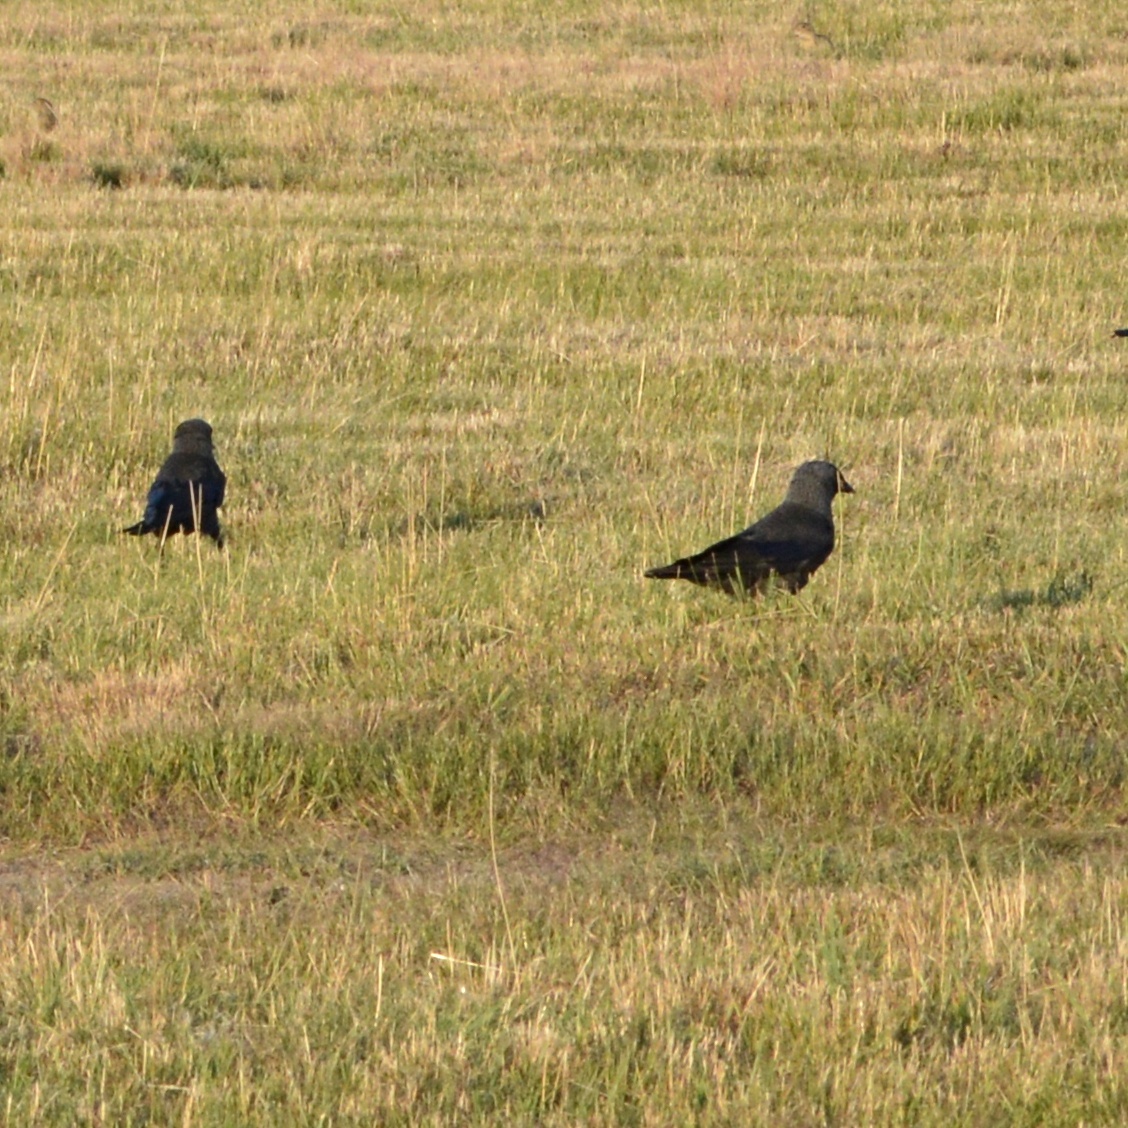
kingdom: Animalia
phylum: Chordata
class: Aves
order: Passeriformes
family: Corvidae
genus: Coloeus
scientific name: Coloeus monedula
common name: Western jackdaw
